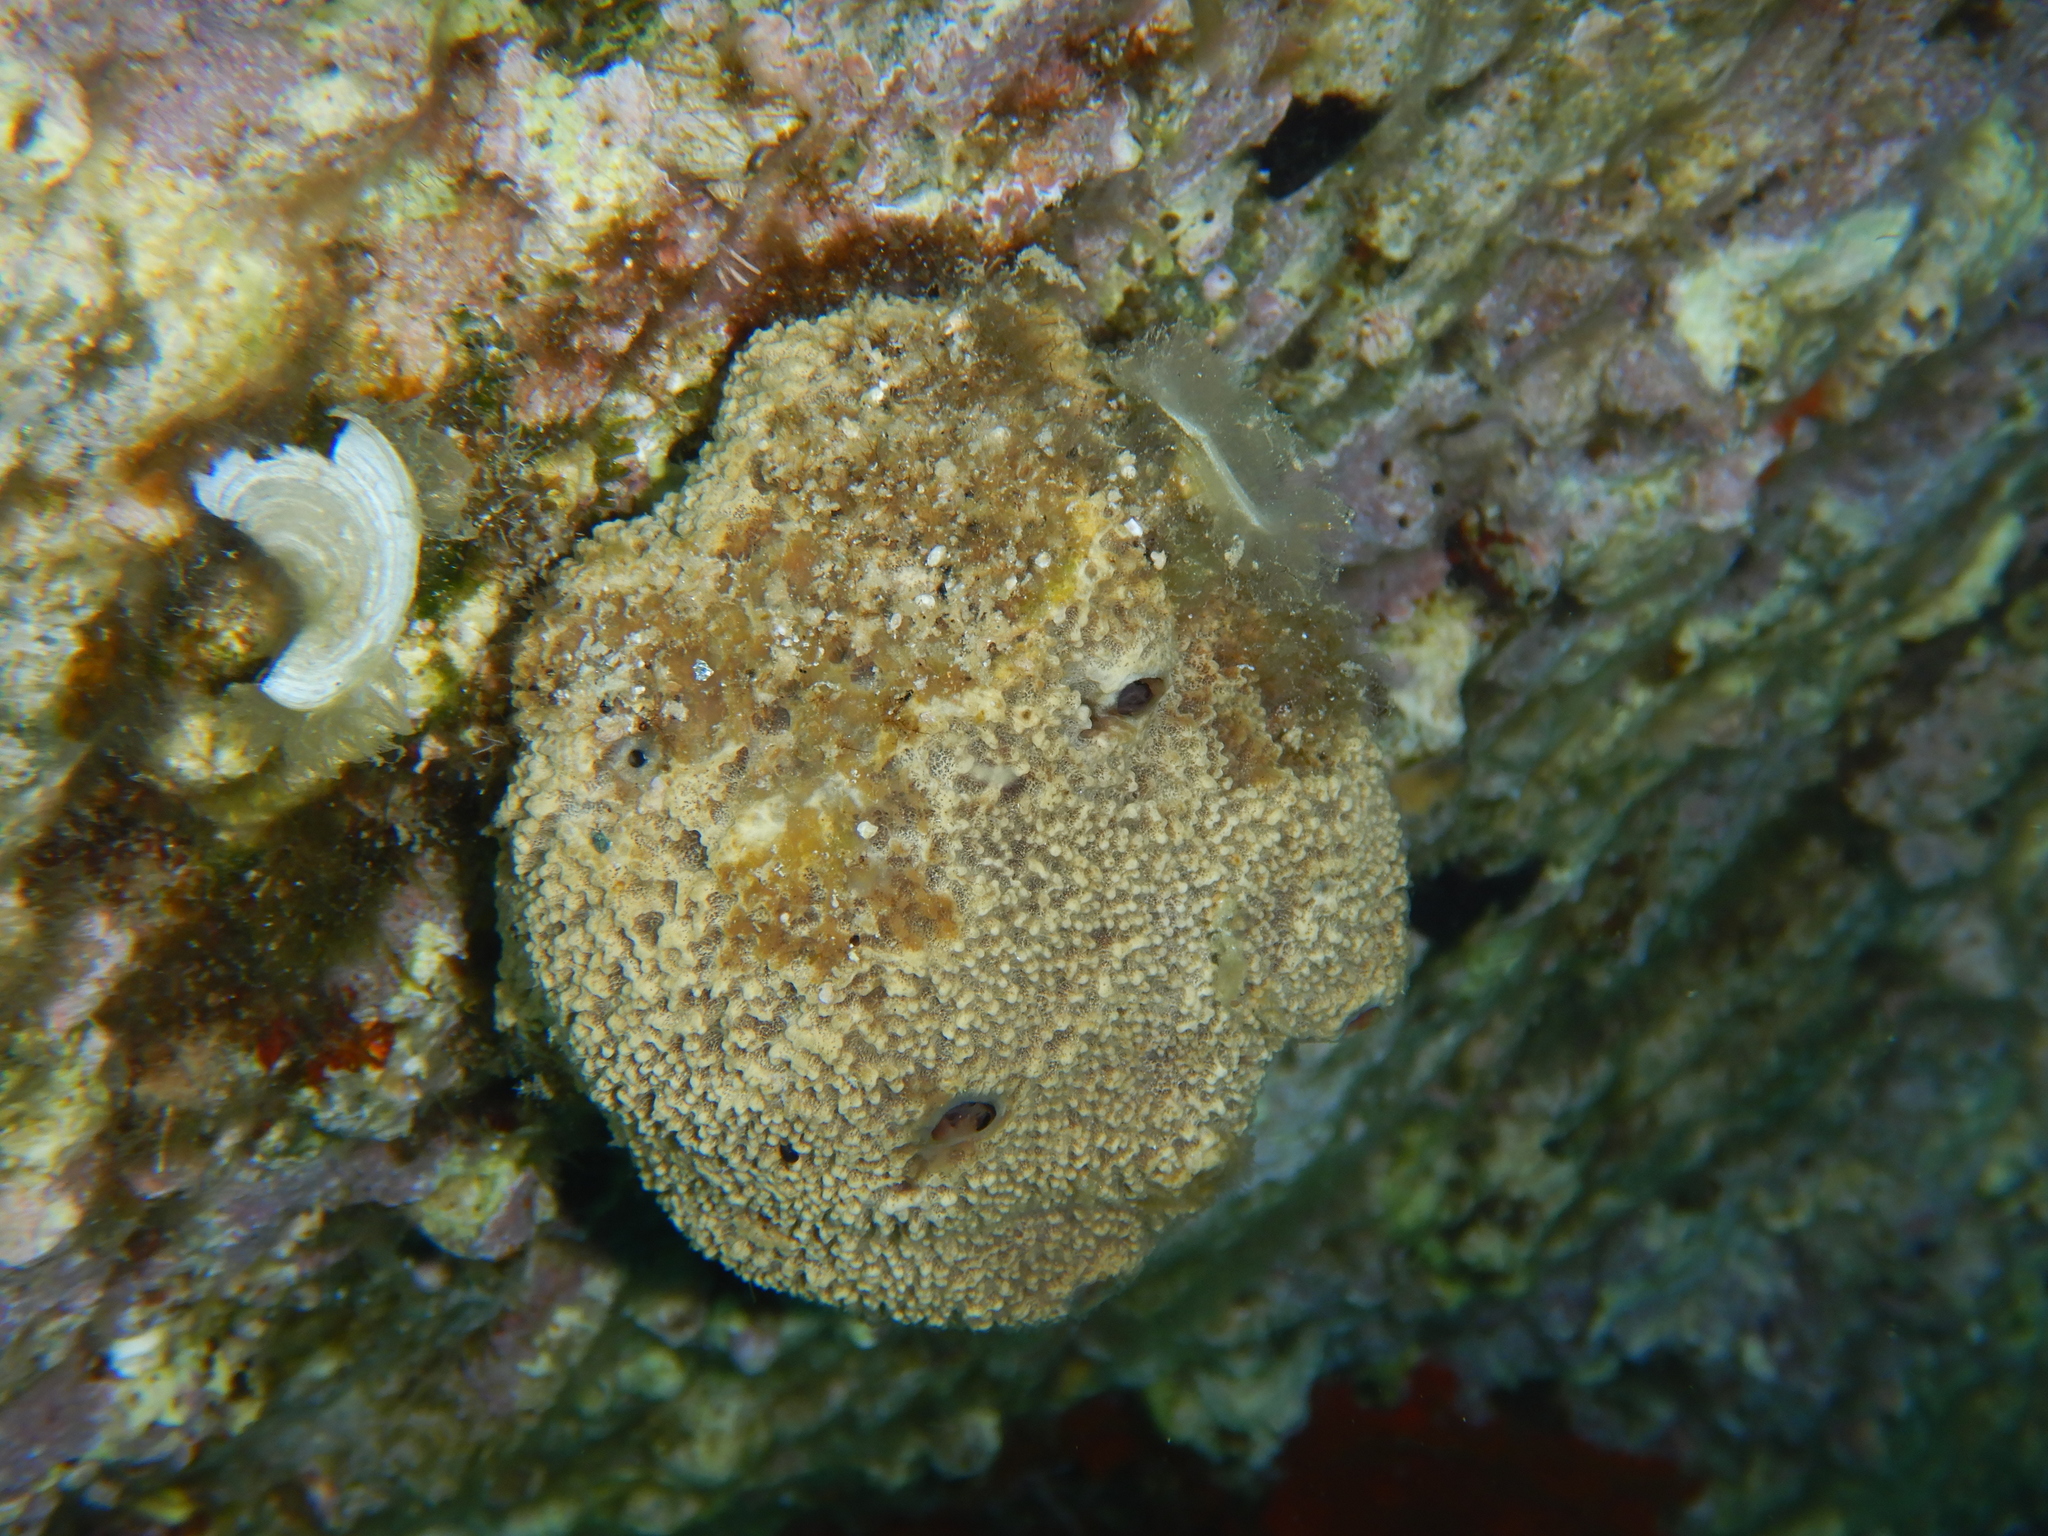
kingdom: Animalia
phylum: Porifera
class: Demospongiae
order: Dictyoceratida
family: Irciniidae
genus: Ircinia
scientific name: Ircinia variabilis
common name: Variable loggerhead sponge
